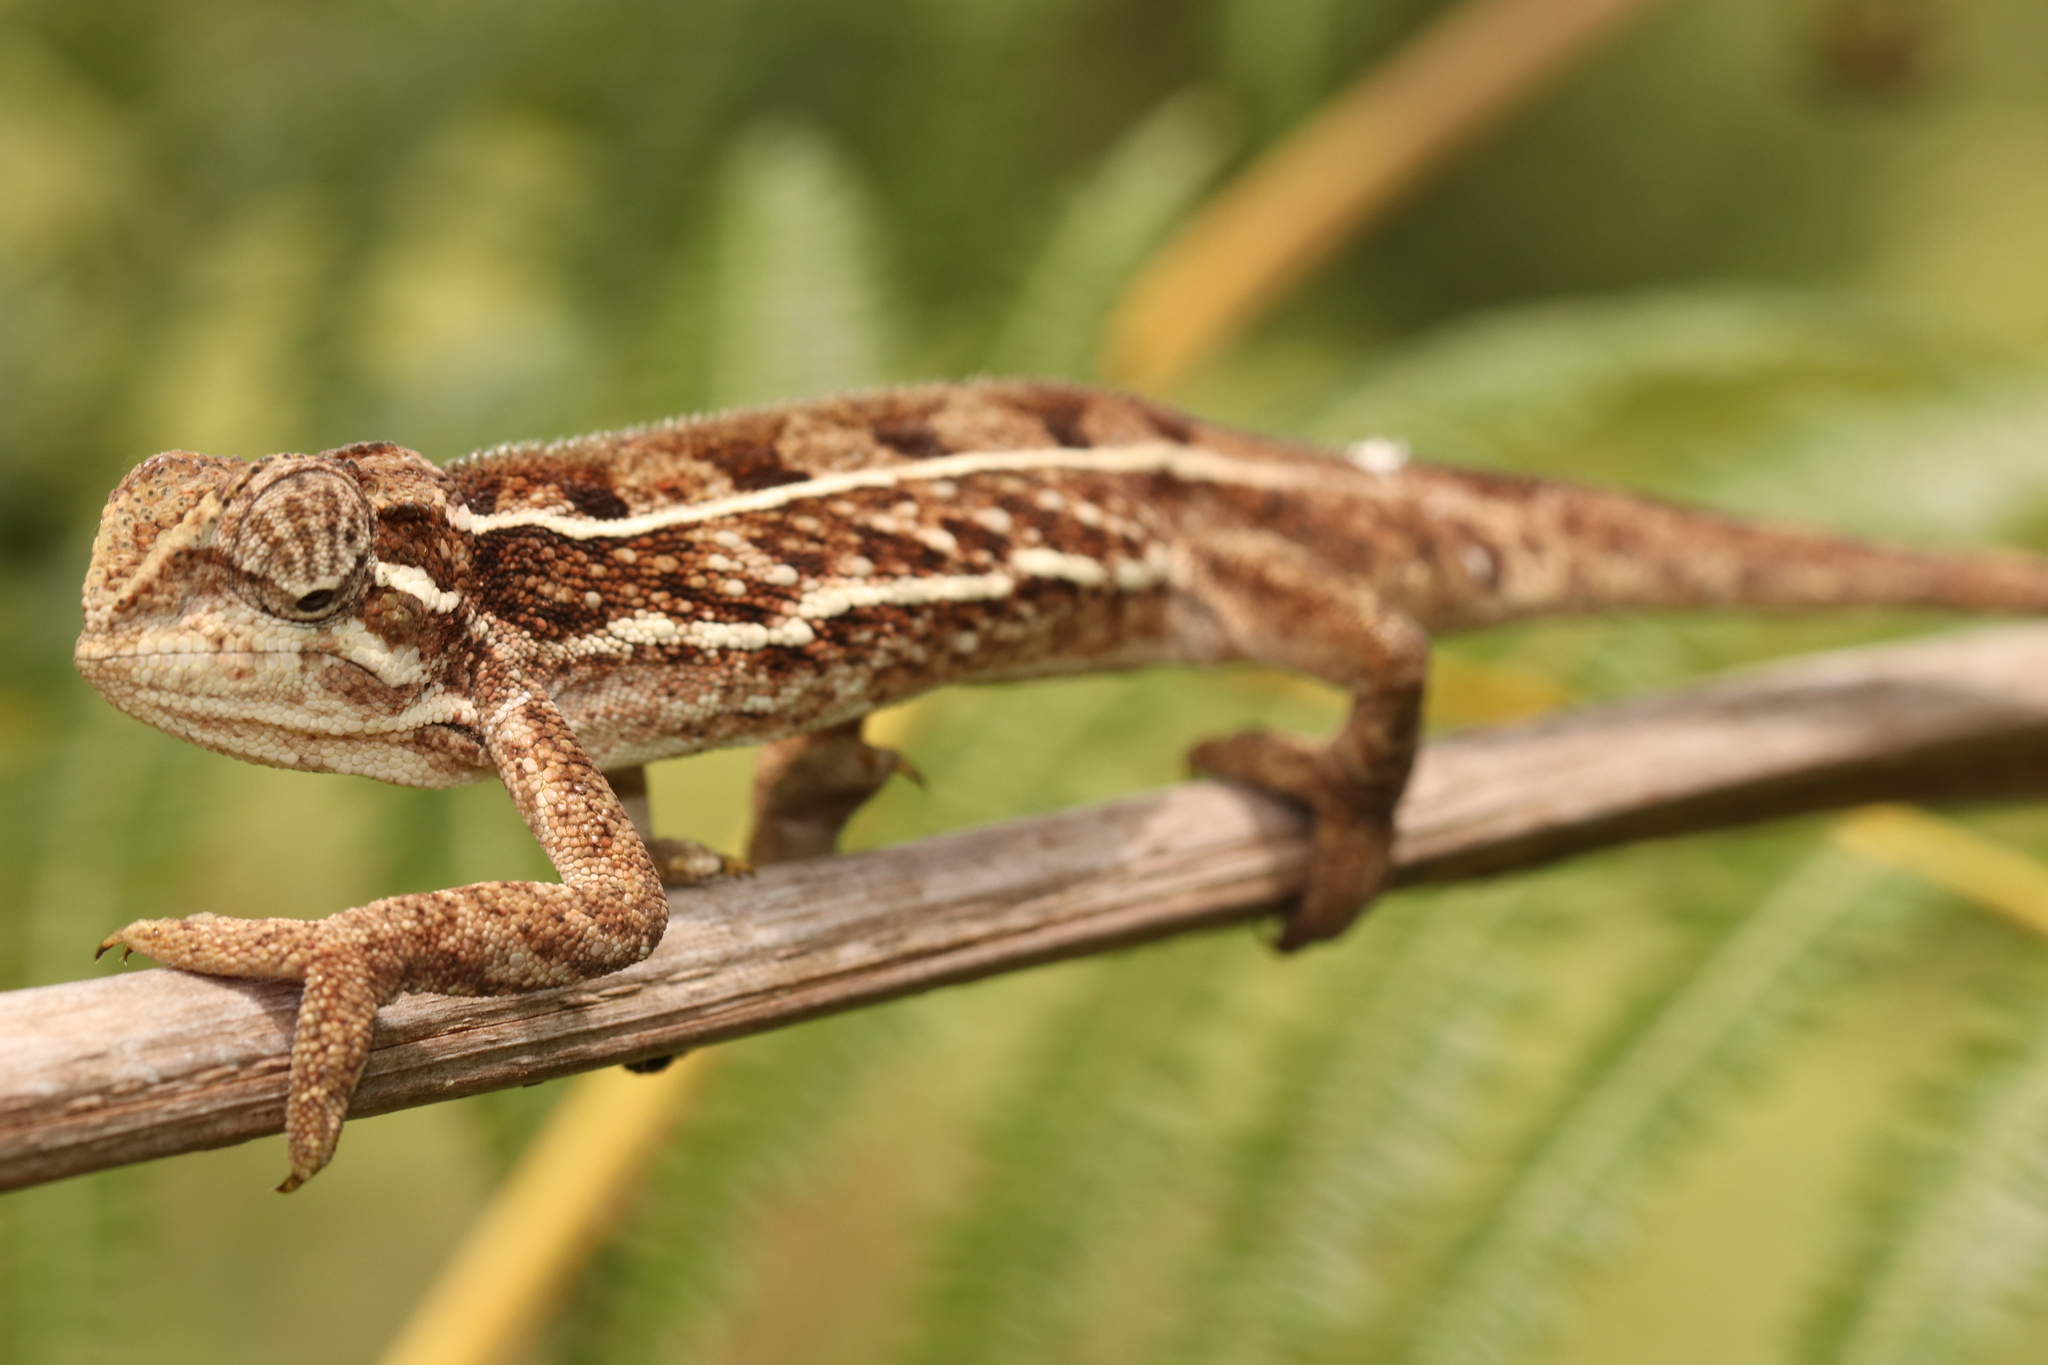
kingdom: Animalia
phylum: Chordata
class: Squamata
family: Chamaeleonidae
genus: Trioceros
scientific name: Trioceros goetzei
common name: Ilolo chameleon
